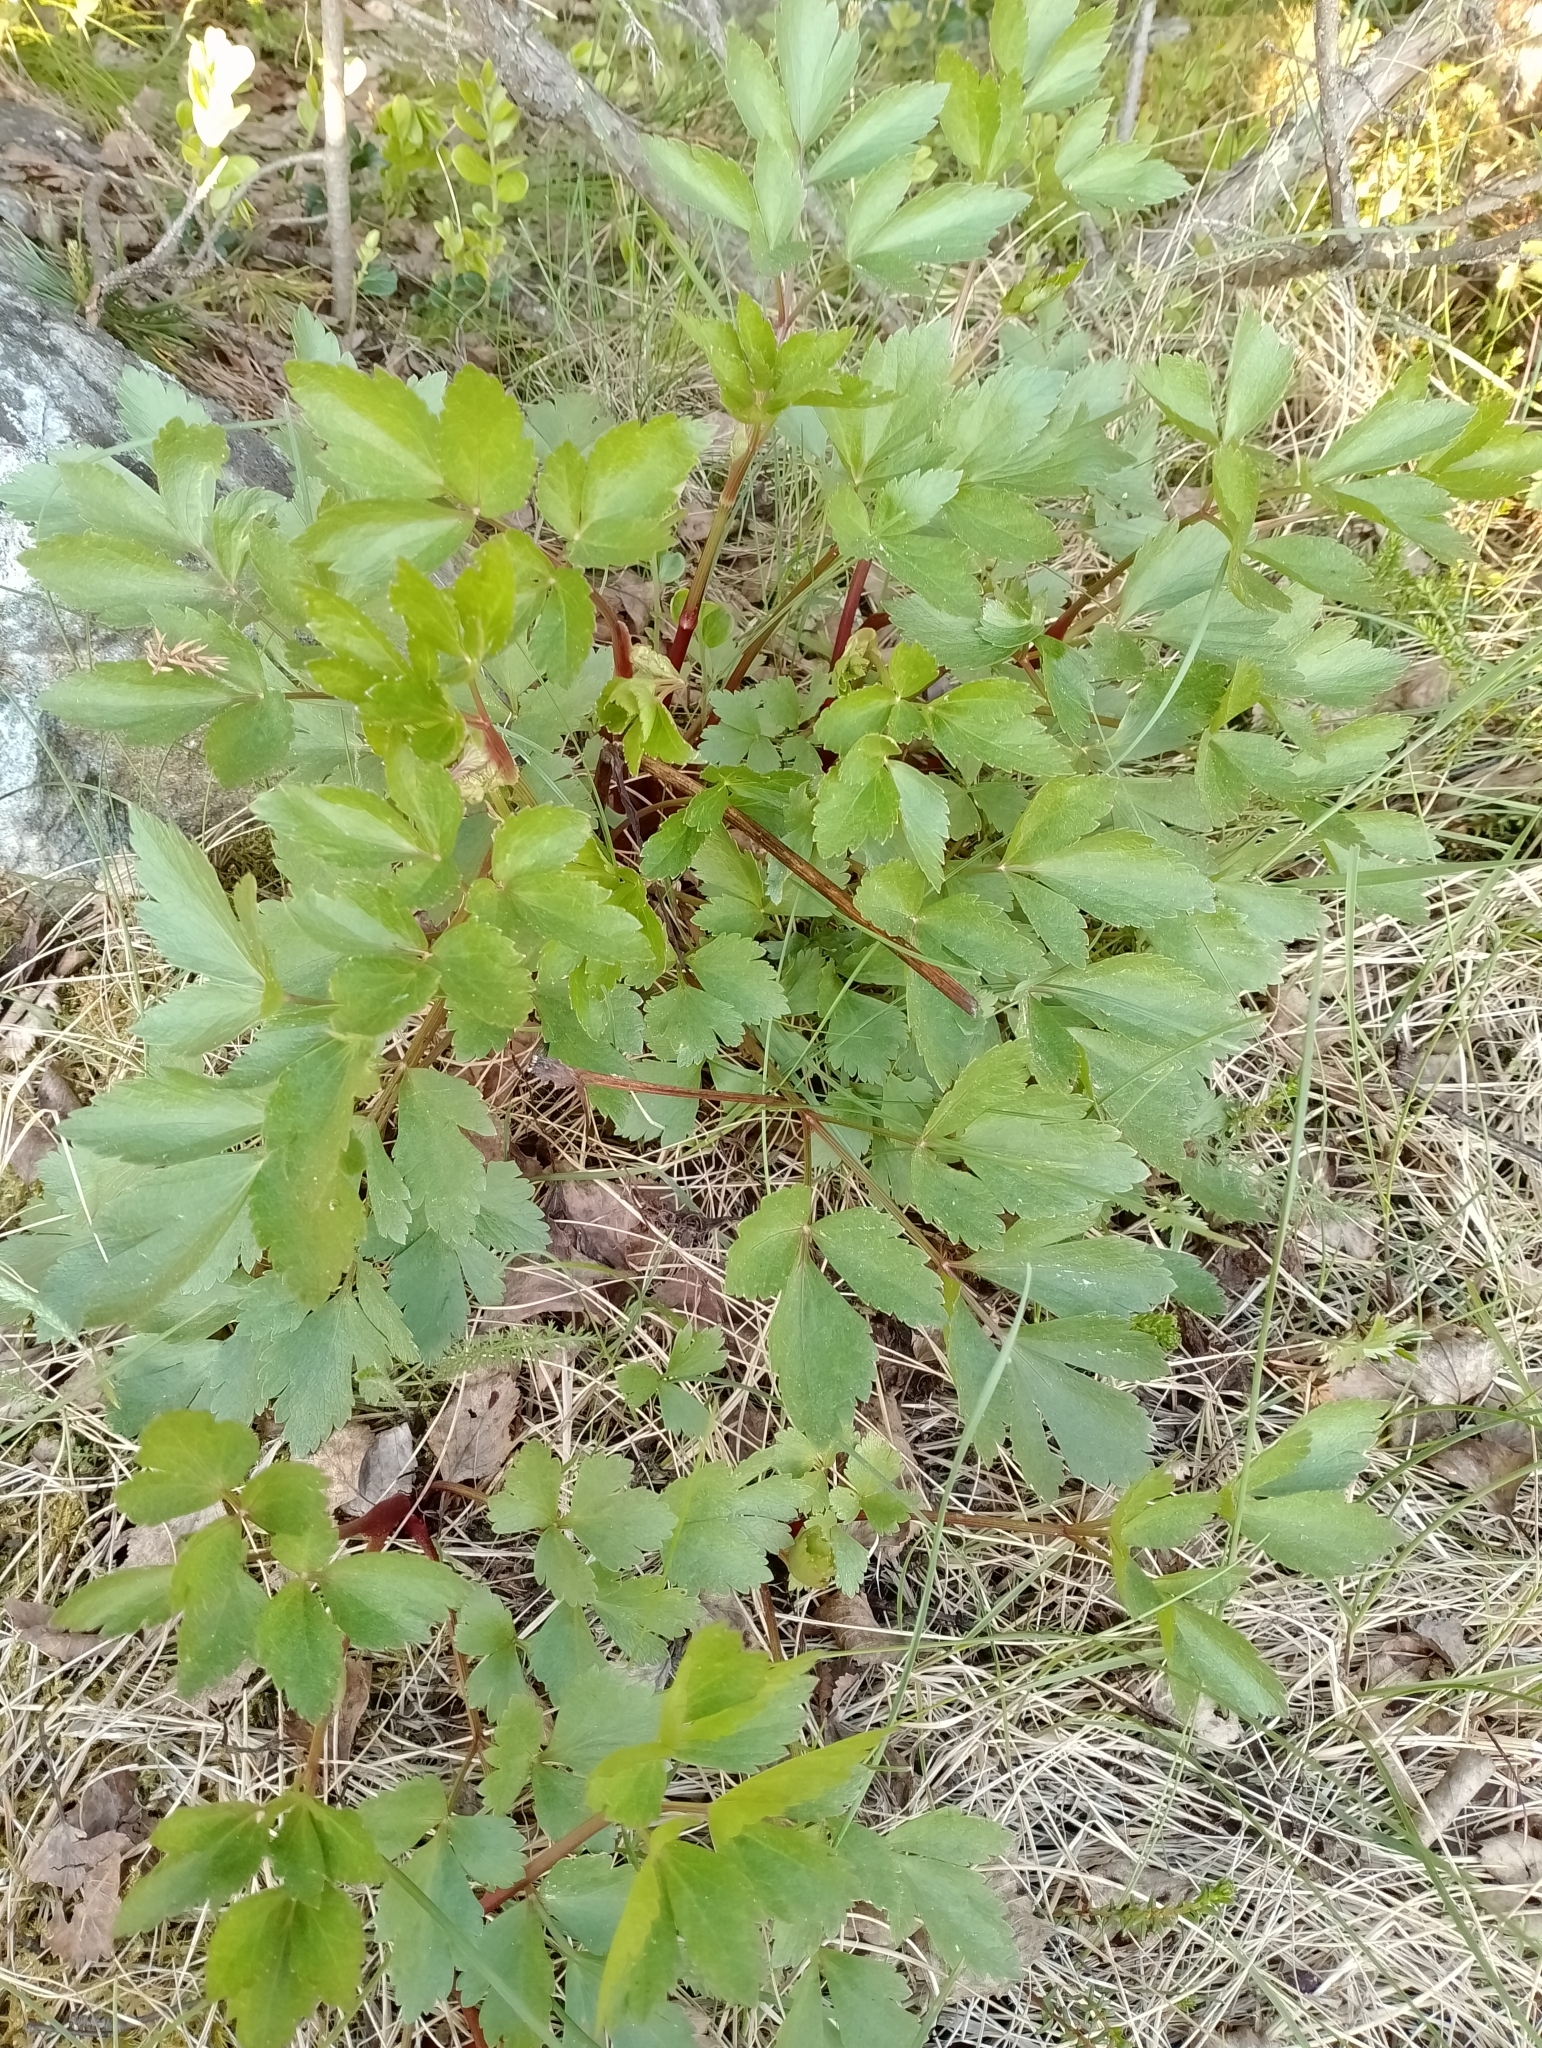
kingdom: Plantae
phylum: Tracheophyta
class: Magnoliopsida
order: Apiales
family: Apiaceae
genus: Ligusticum
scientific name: Ligusticum scothicum
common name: Beach lovage
